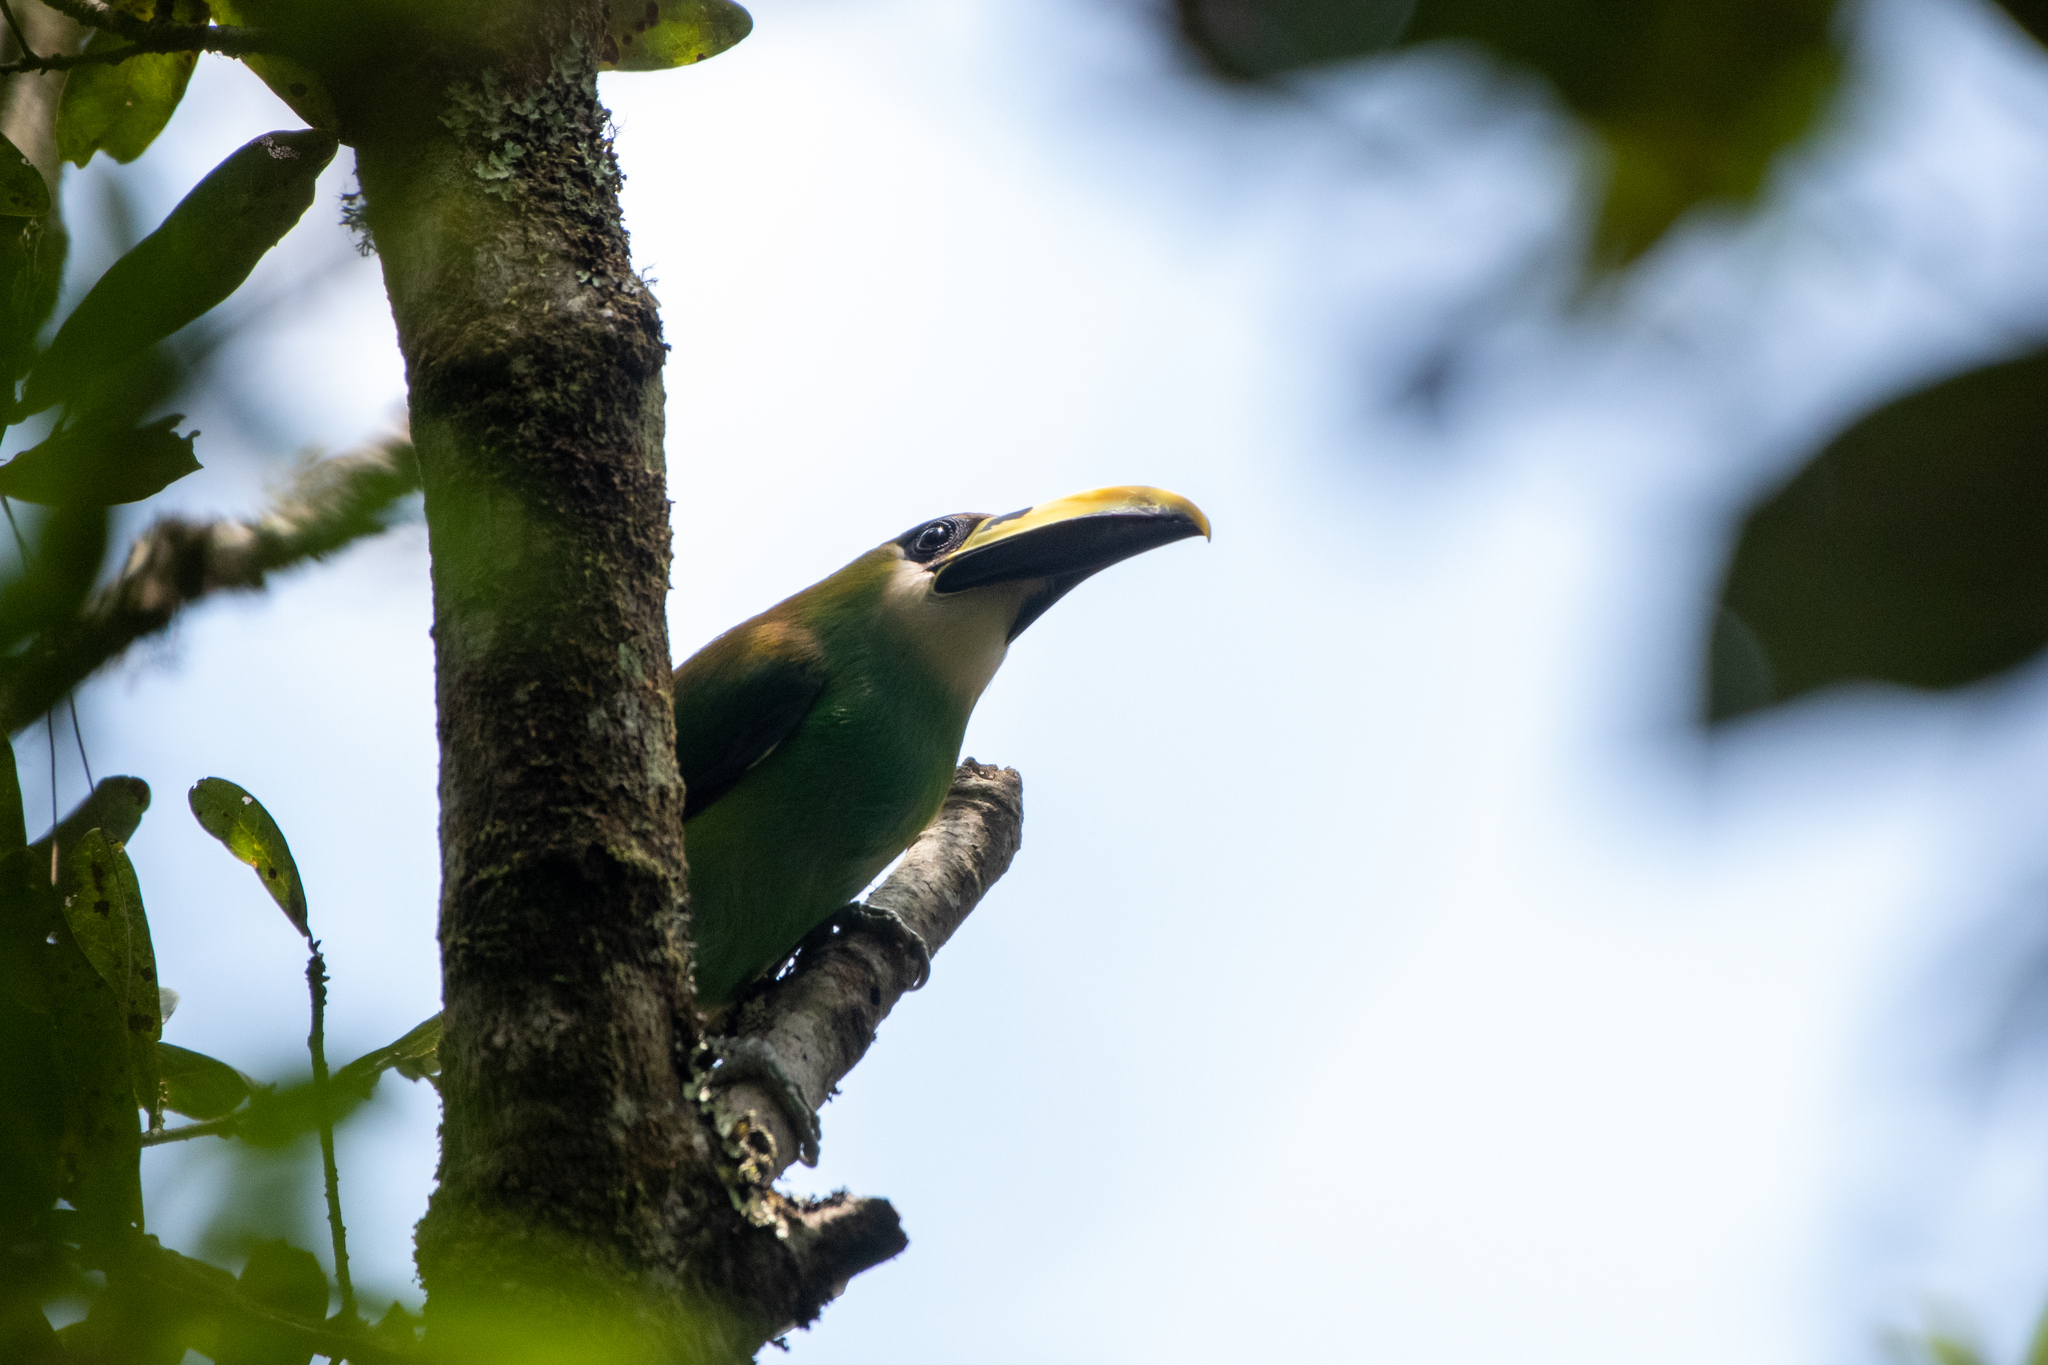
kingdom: Animalia
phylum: Chordata
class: Aves
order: Piciformes
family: Ramphastidae
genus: Aulacorhynchus
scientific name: Aulacorhynchus prasinus
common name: Emerald toucanet
